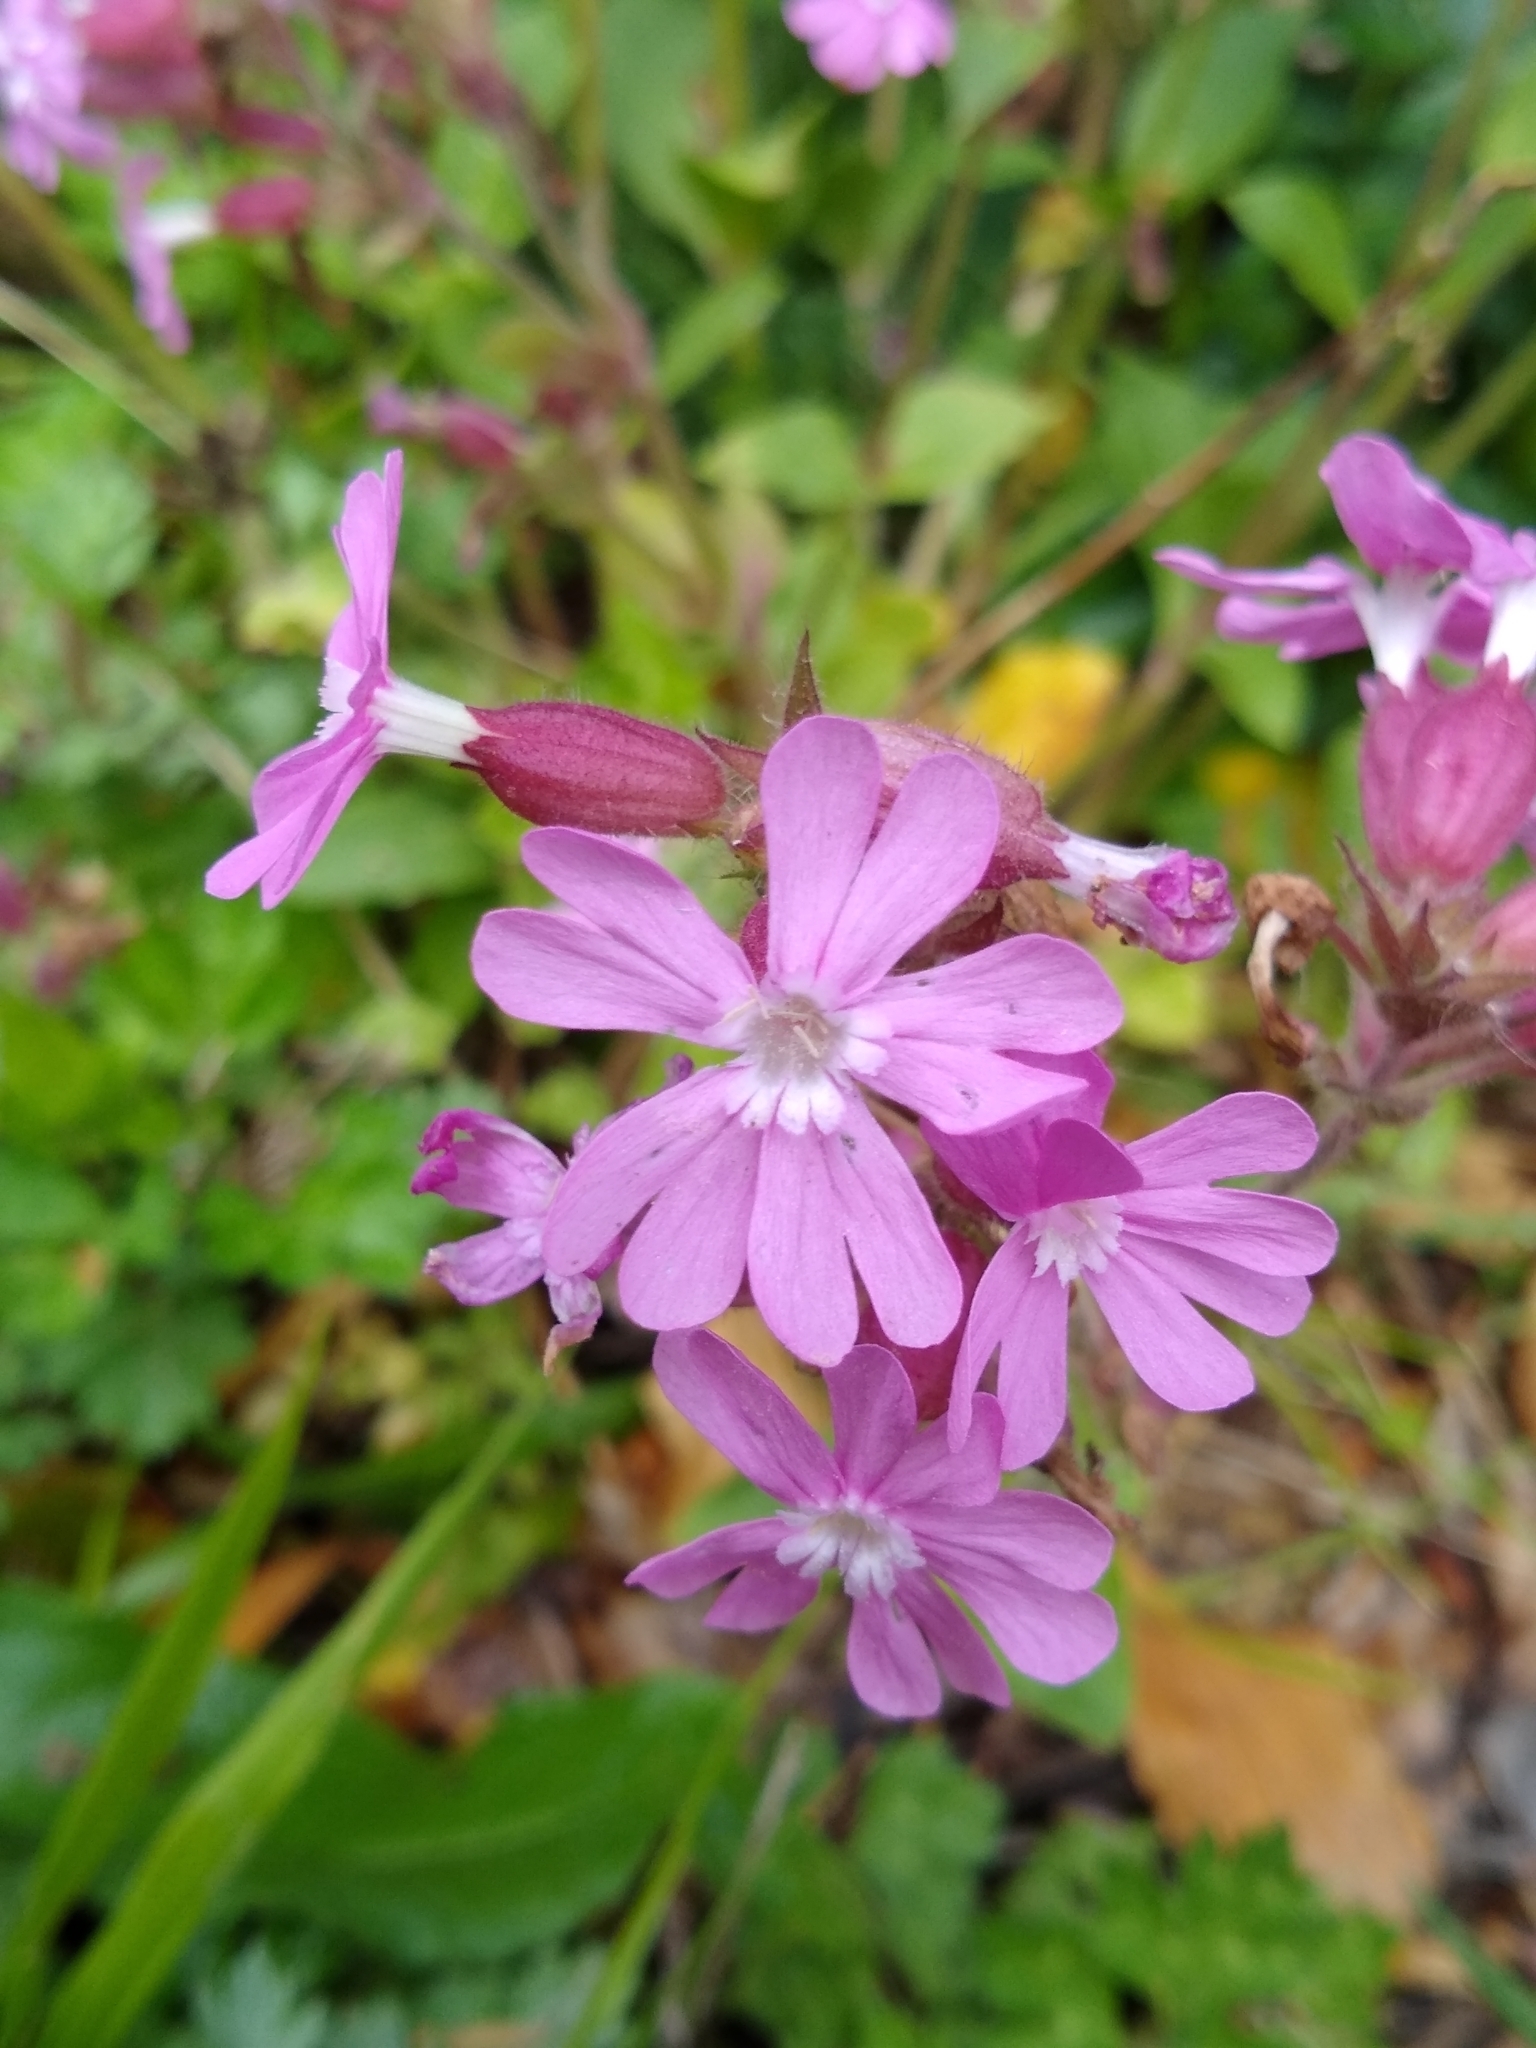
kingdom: Plantae
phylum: Tracheophyta
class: Magnoliopsida
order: Caryophyllales
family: Caryophyllaceae
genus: Silene
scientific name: Silene dioica
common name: Red campion
